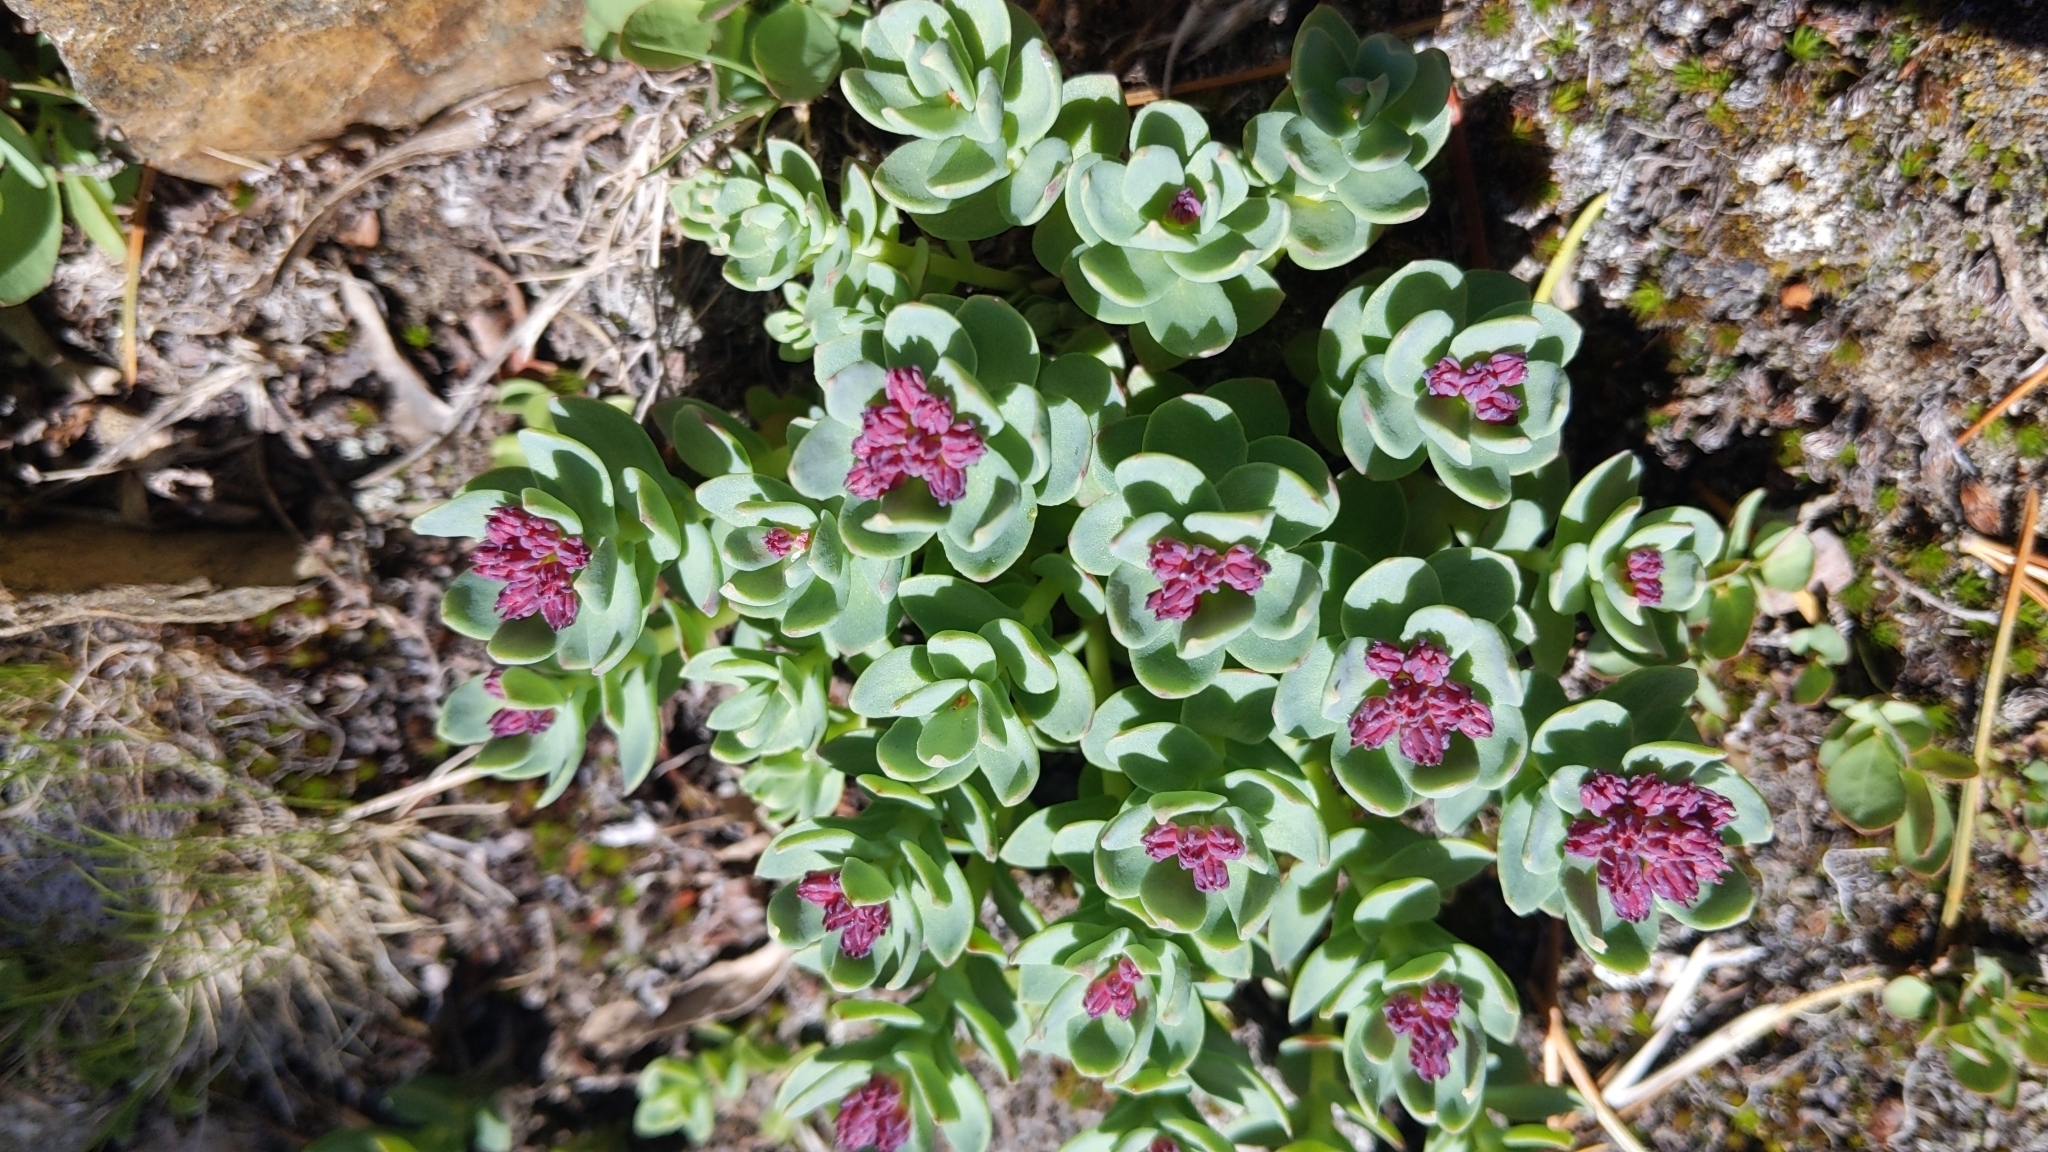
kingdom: Plantae
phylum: Tracheophyta
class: Magnoliopsida
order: Saxifragales
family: Crassulaceae
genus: Rhodiola
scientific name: Rhodiola integrifolia
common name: Western roseroot
